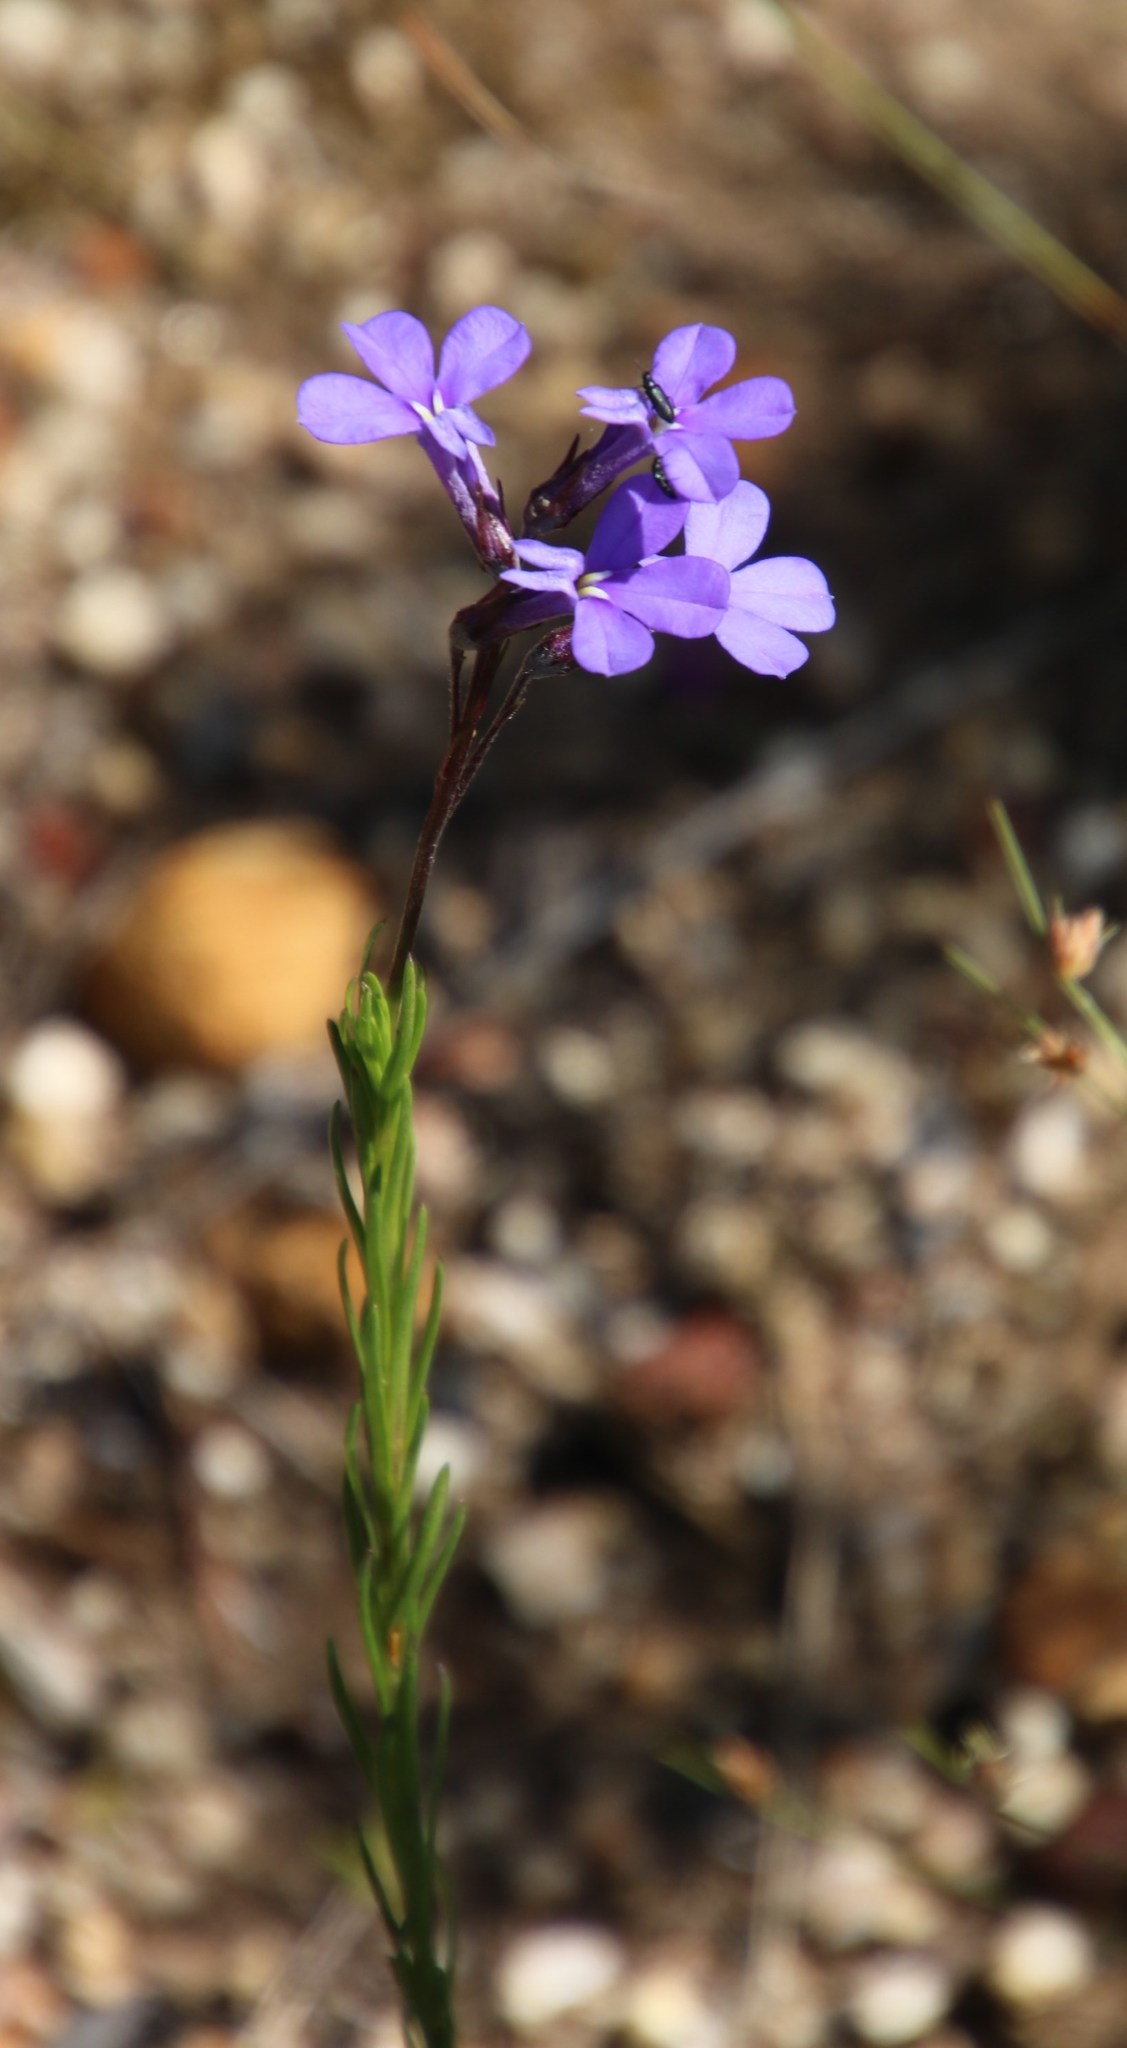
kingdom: Plantae
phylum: Tracheophyta
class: Magnoliopsida
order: Asterales
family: Campanulaceae
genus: Lobelia
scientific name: Lobelia pinifolia
